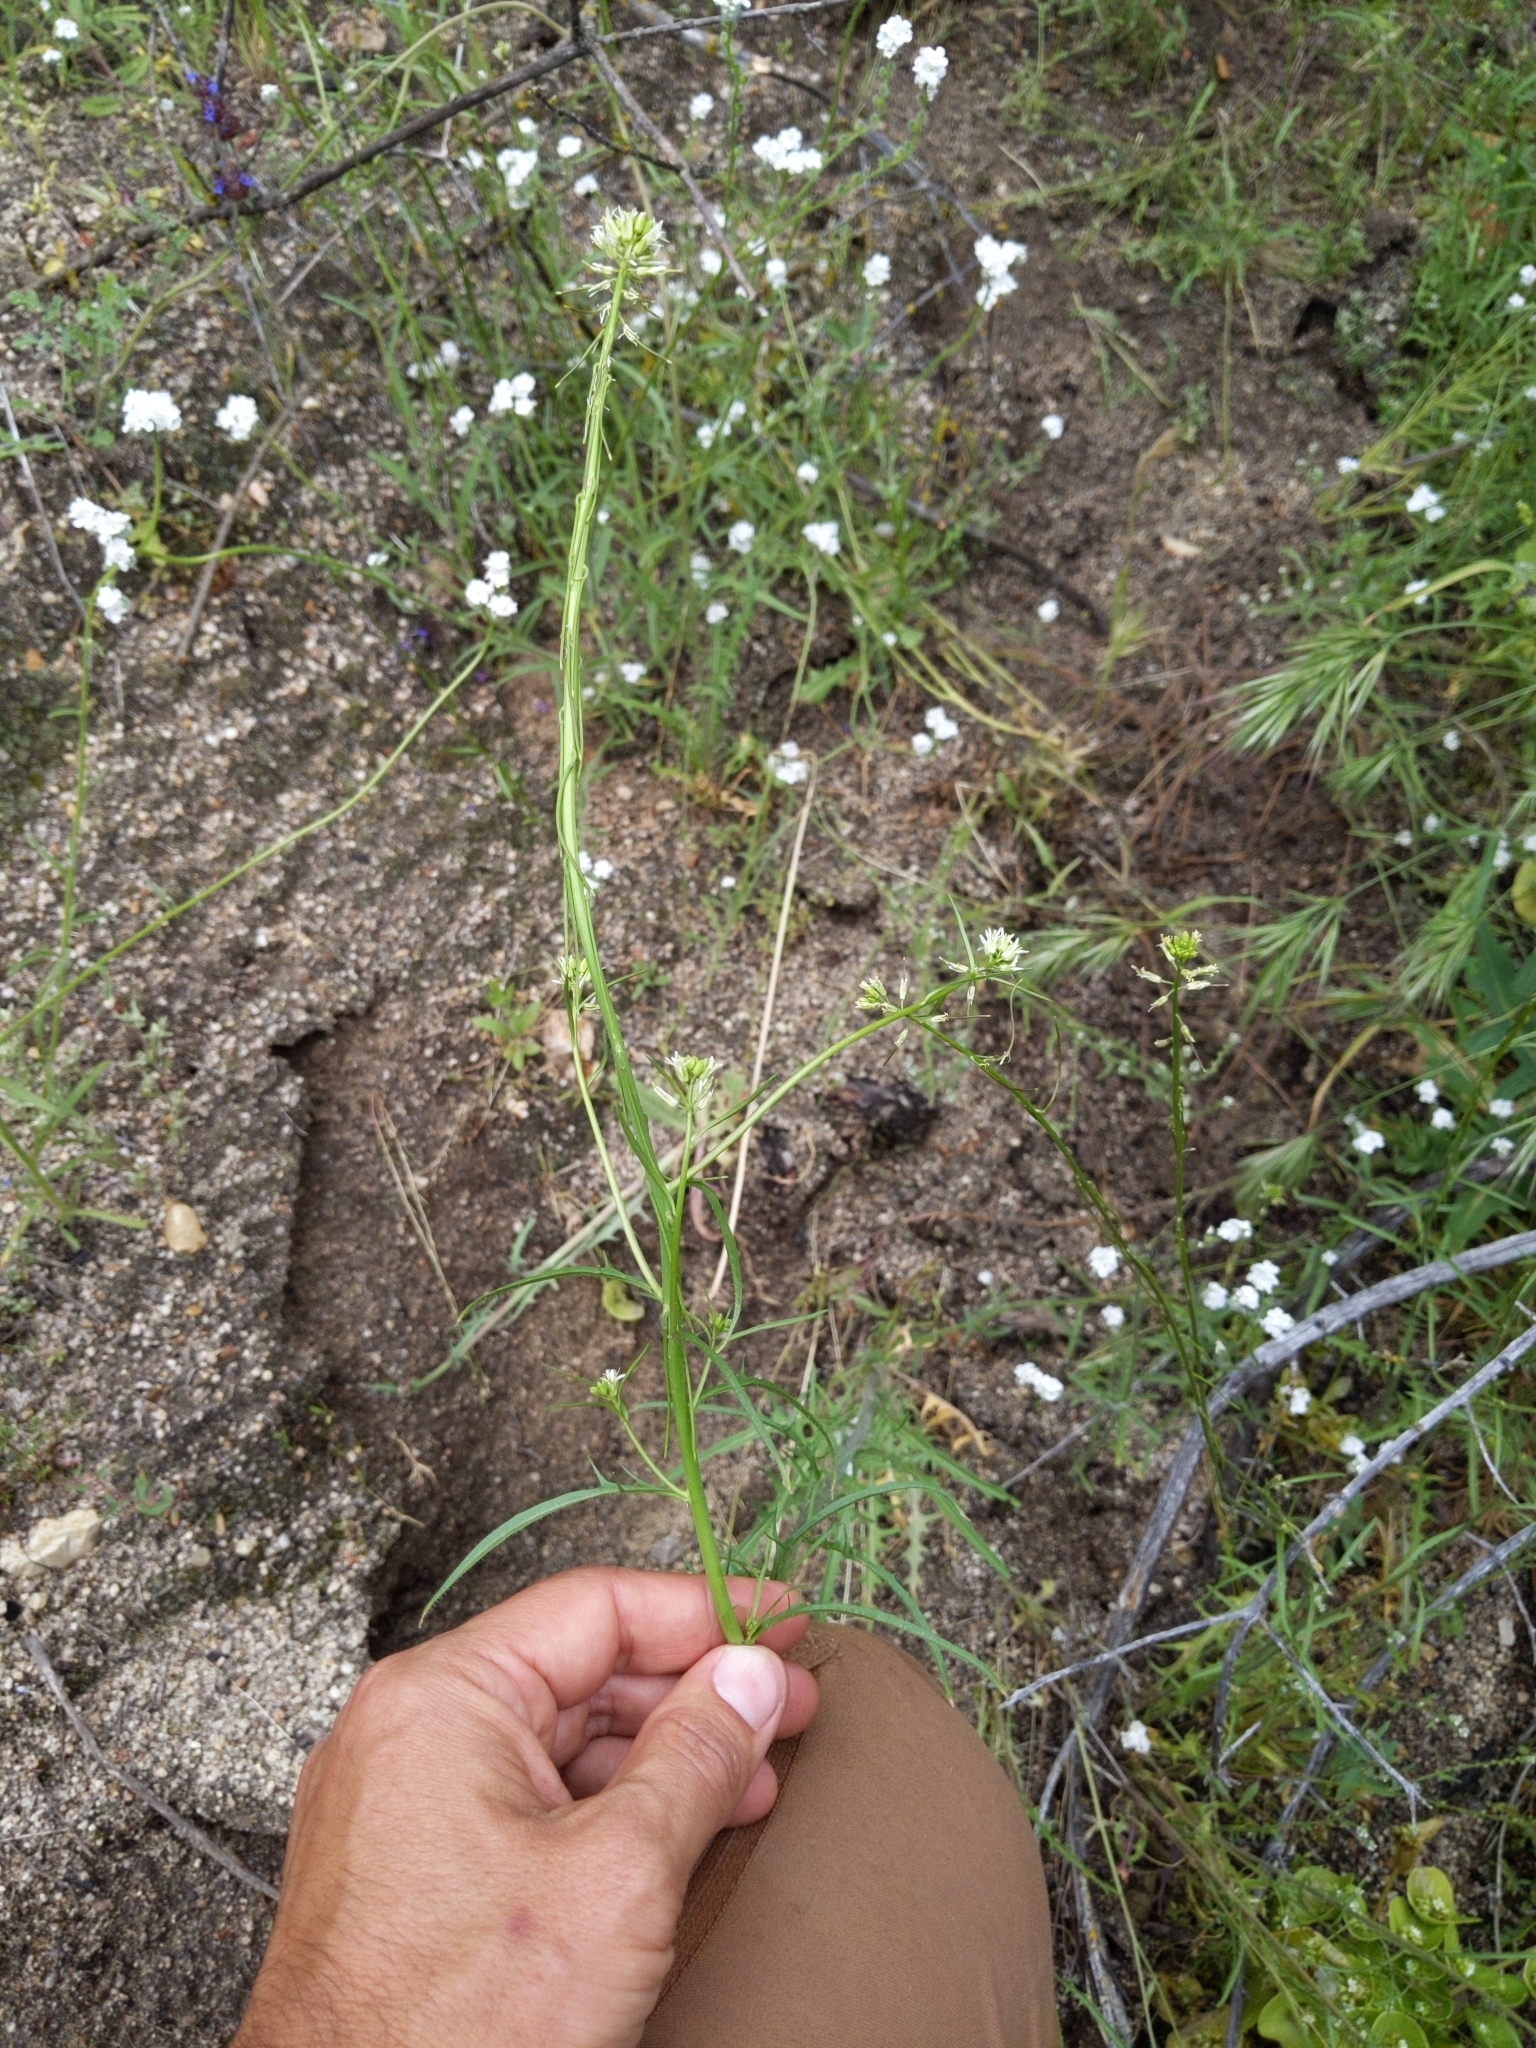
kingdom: Plantae
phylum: Tracheophyta
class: Magnoliopsida
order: Brassicales
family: Brassicaceae
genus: Streptanthus
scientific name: Streptanthus lasiophyllus
